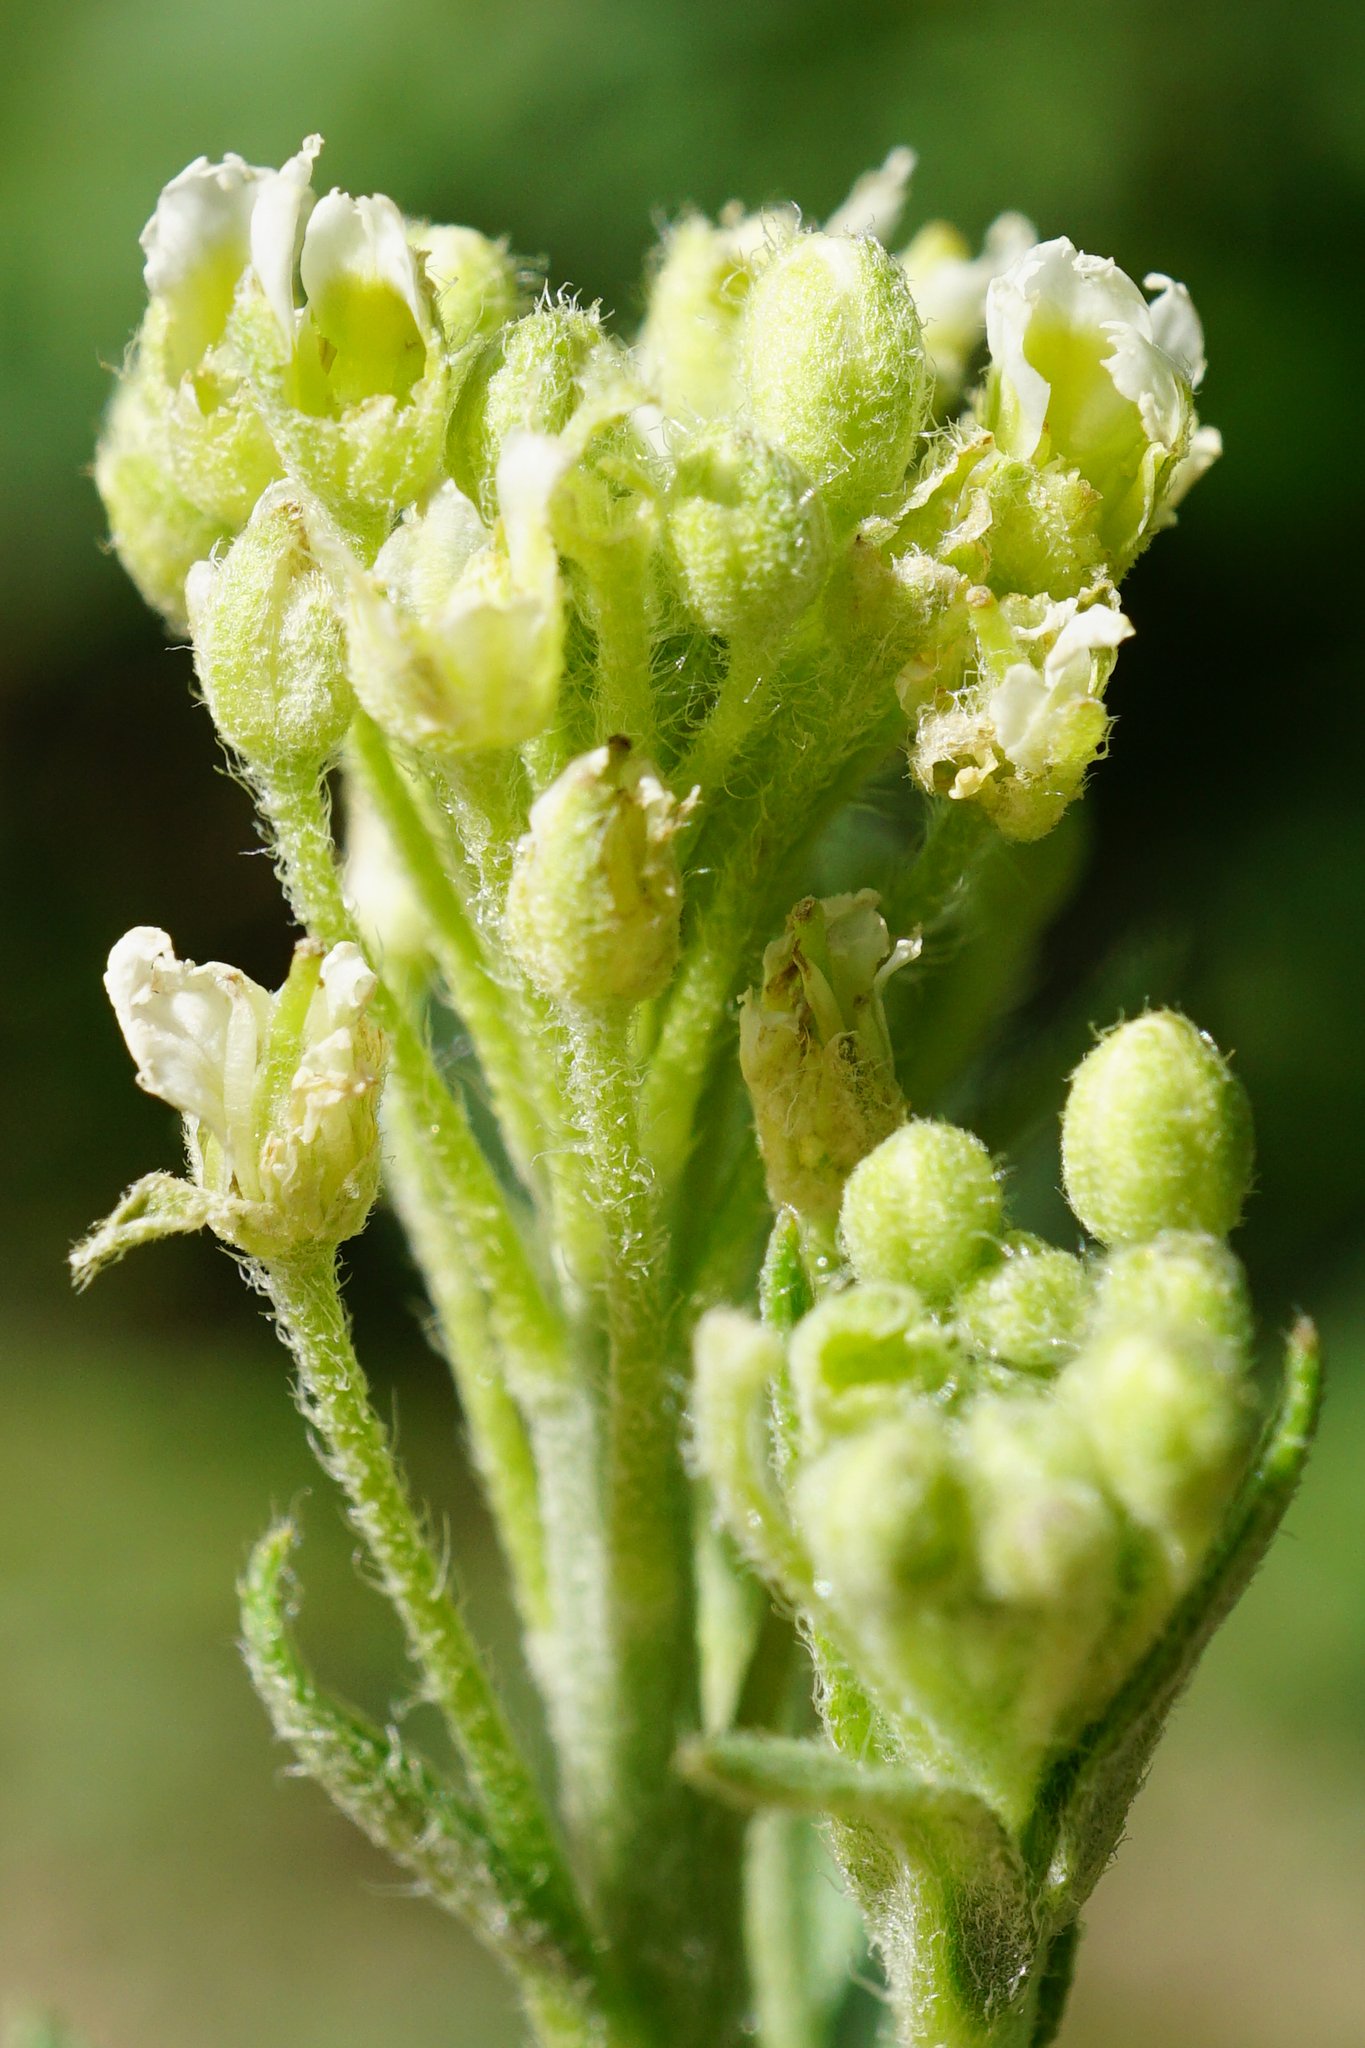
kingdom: Plantae
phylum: Tracheophyta
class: Magnoliopsida
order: Brassicales
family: Brassicaceae
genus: Berteroa
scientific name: Berteroa incana
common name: Hoary alison
